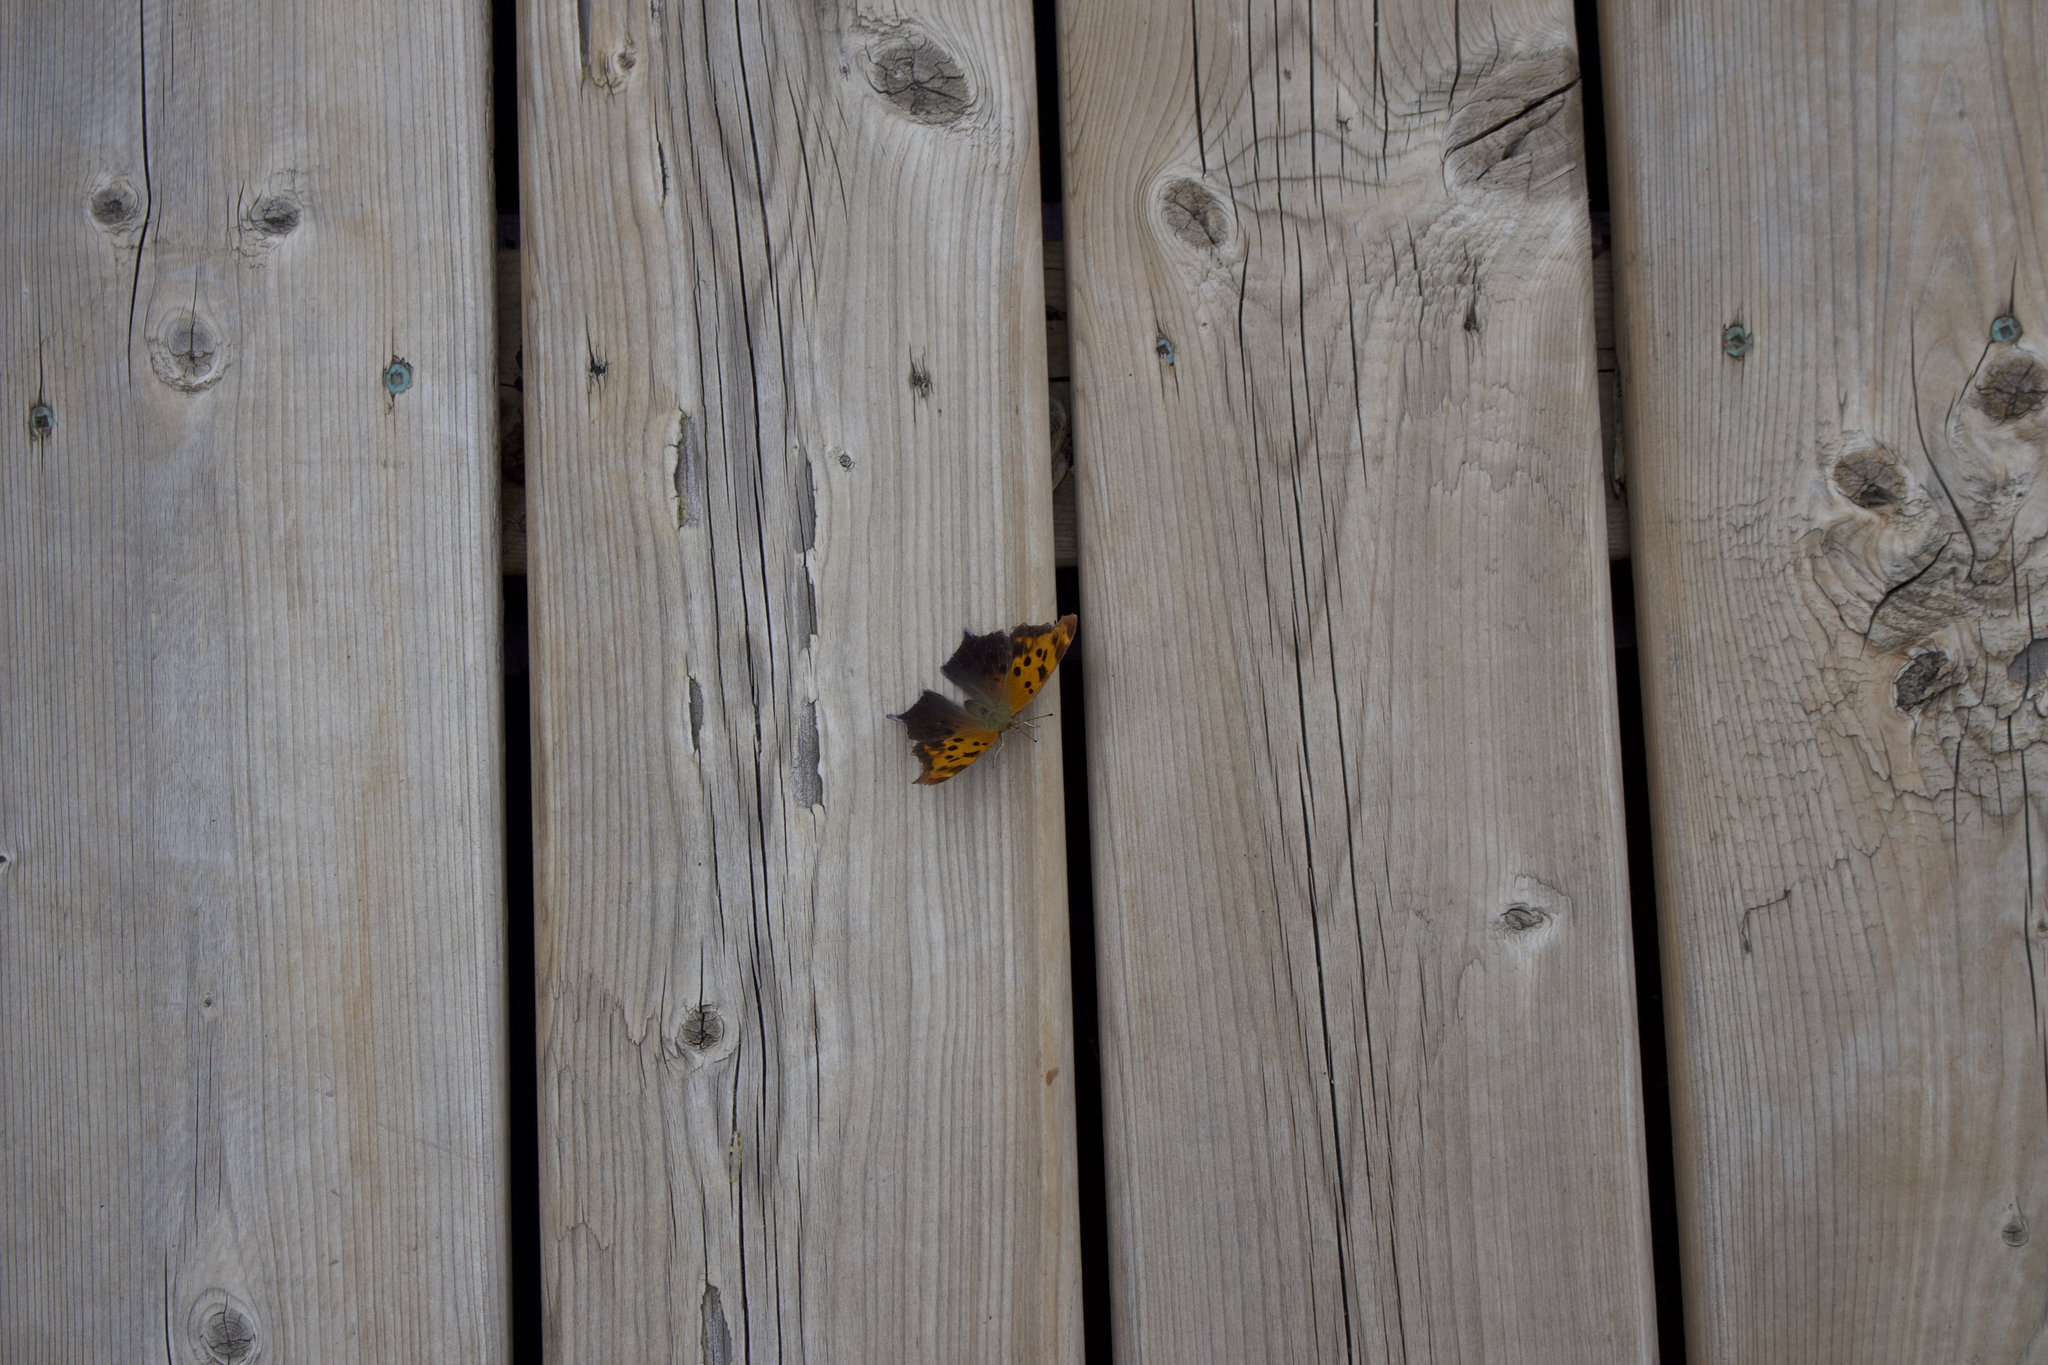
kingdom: Animalia
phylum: Arthropoda
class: Insecta
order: Lepidoptera
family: Nymphalidae
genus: Polygonia
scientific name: Polygonia interrogationis
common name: Question mark
